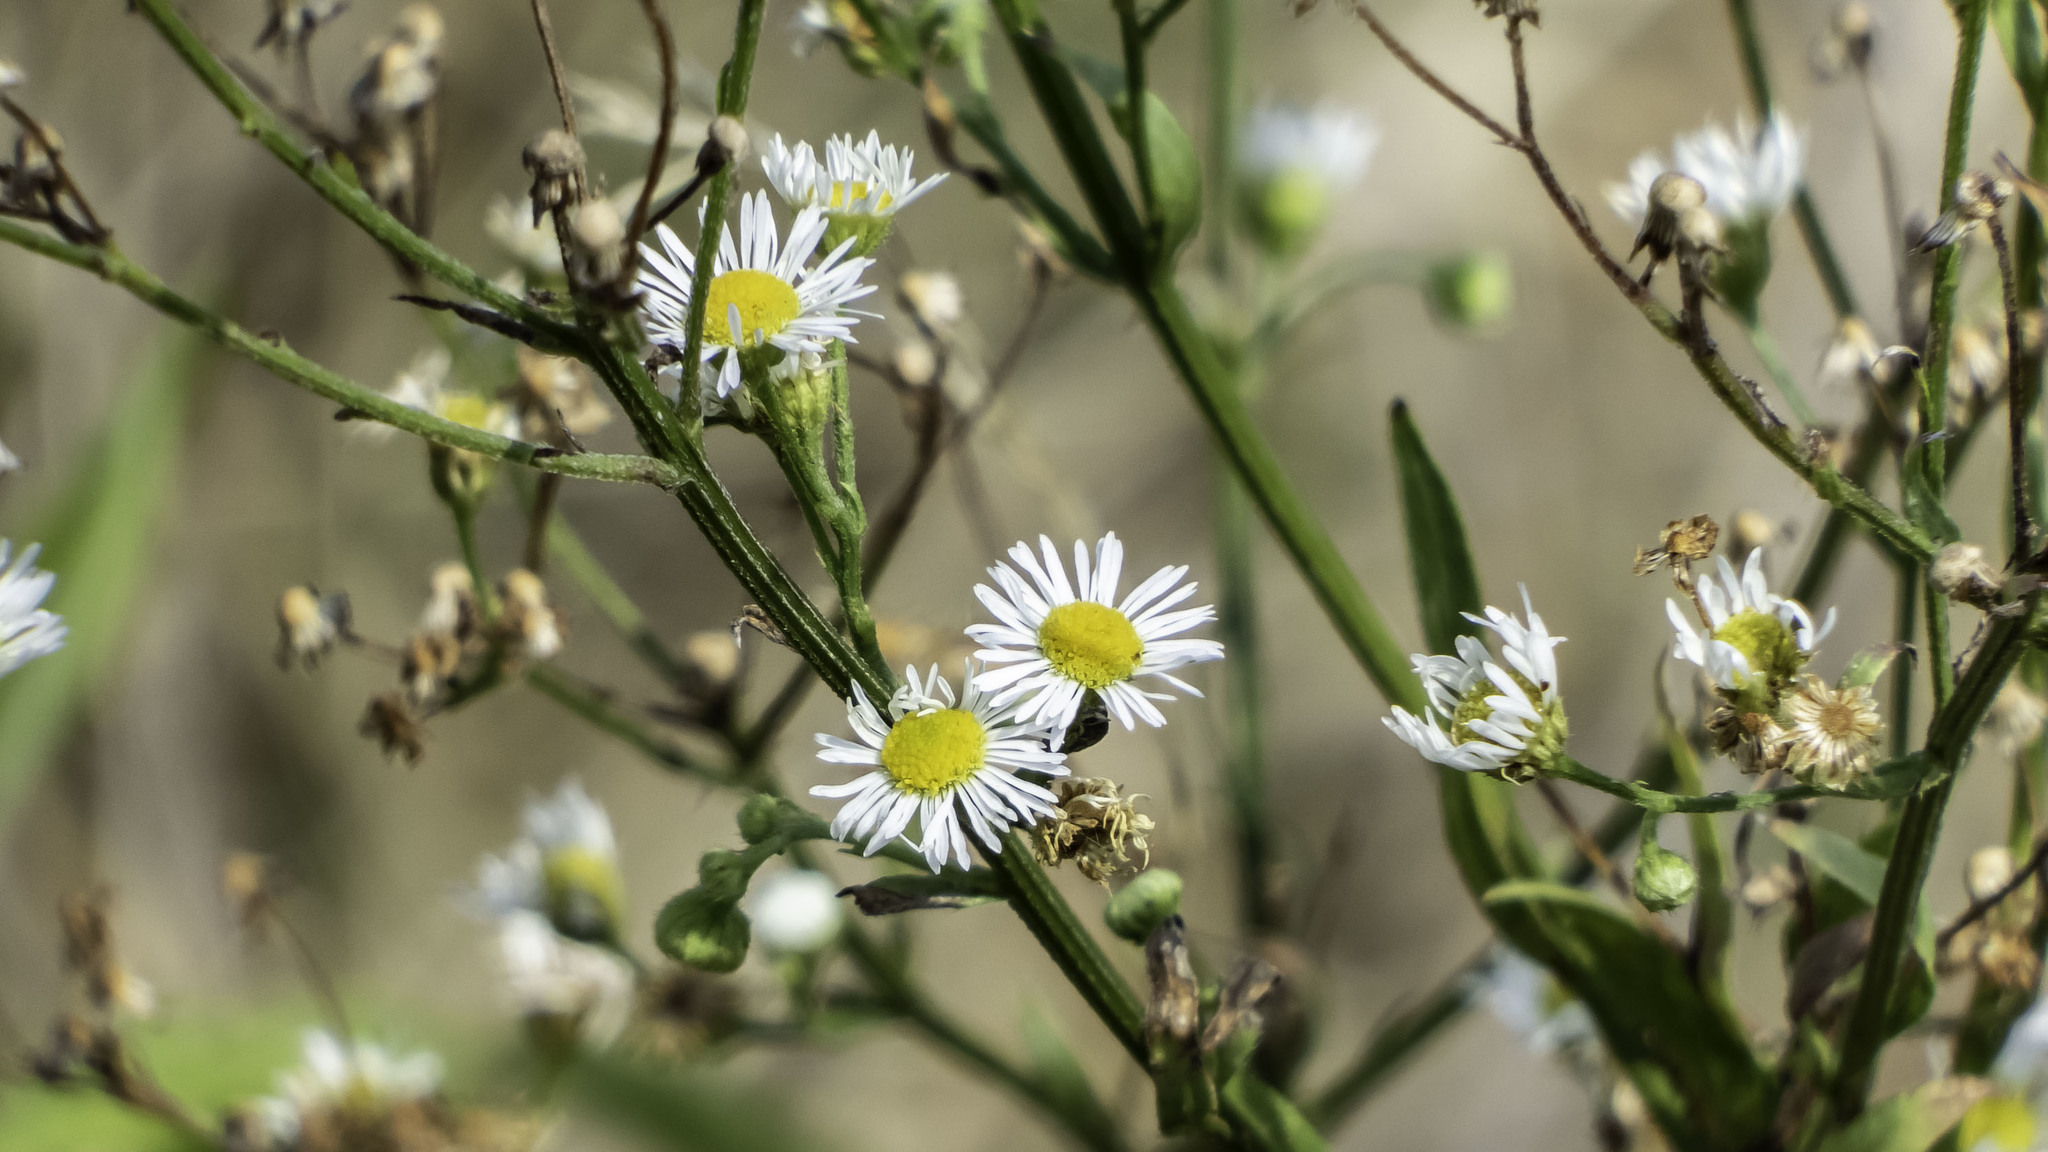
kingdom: Plantae
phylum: Tracheophyta
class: Magnoliopsida
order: Asterales
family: Asteraceae
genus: Erigeron
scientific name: Erigeron strigosus
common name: Common eastern fleabane
